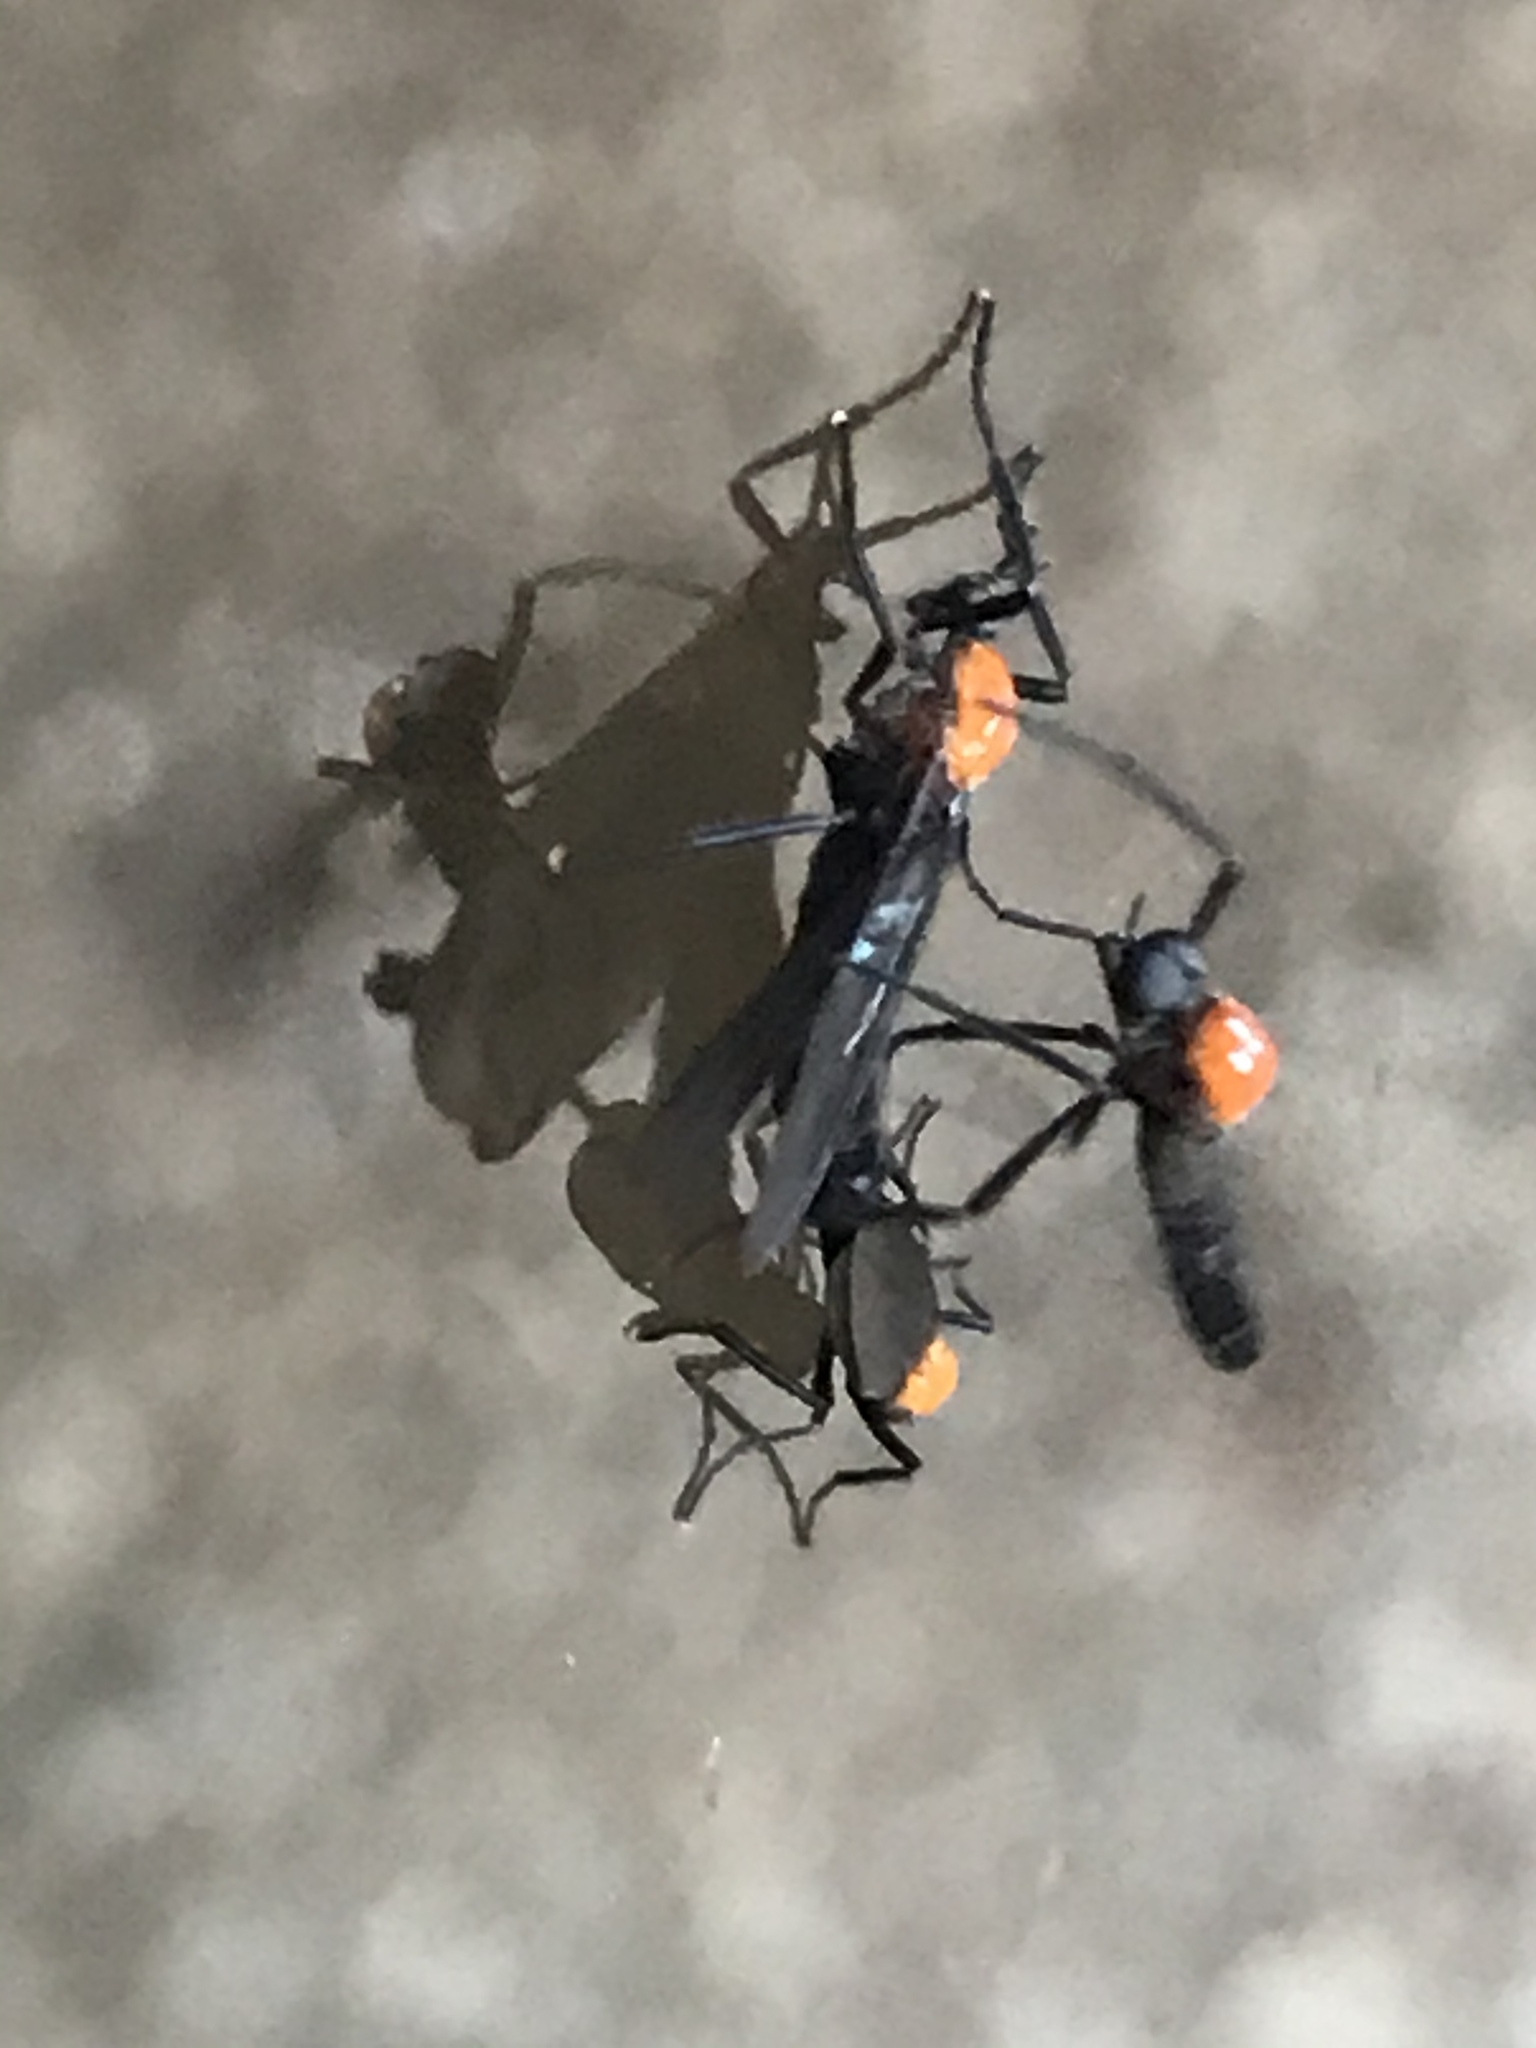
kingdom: Animalia
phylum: Arthropoda
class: Insecta
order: Diptera
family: Bibionidae
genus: Plecia
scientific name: Plecia nearctica
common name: March fly
